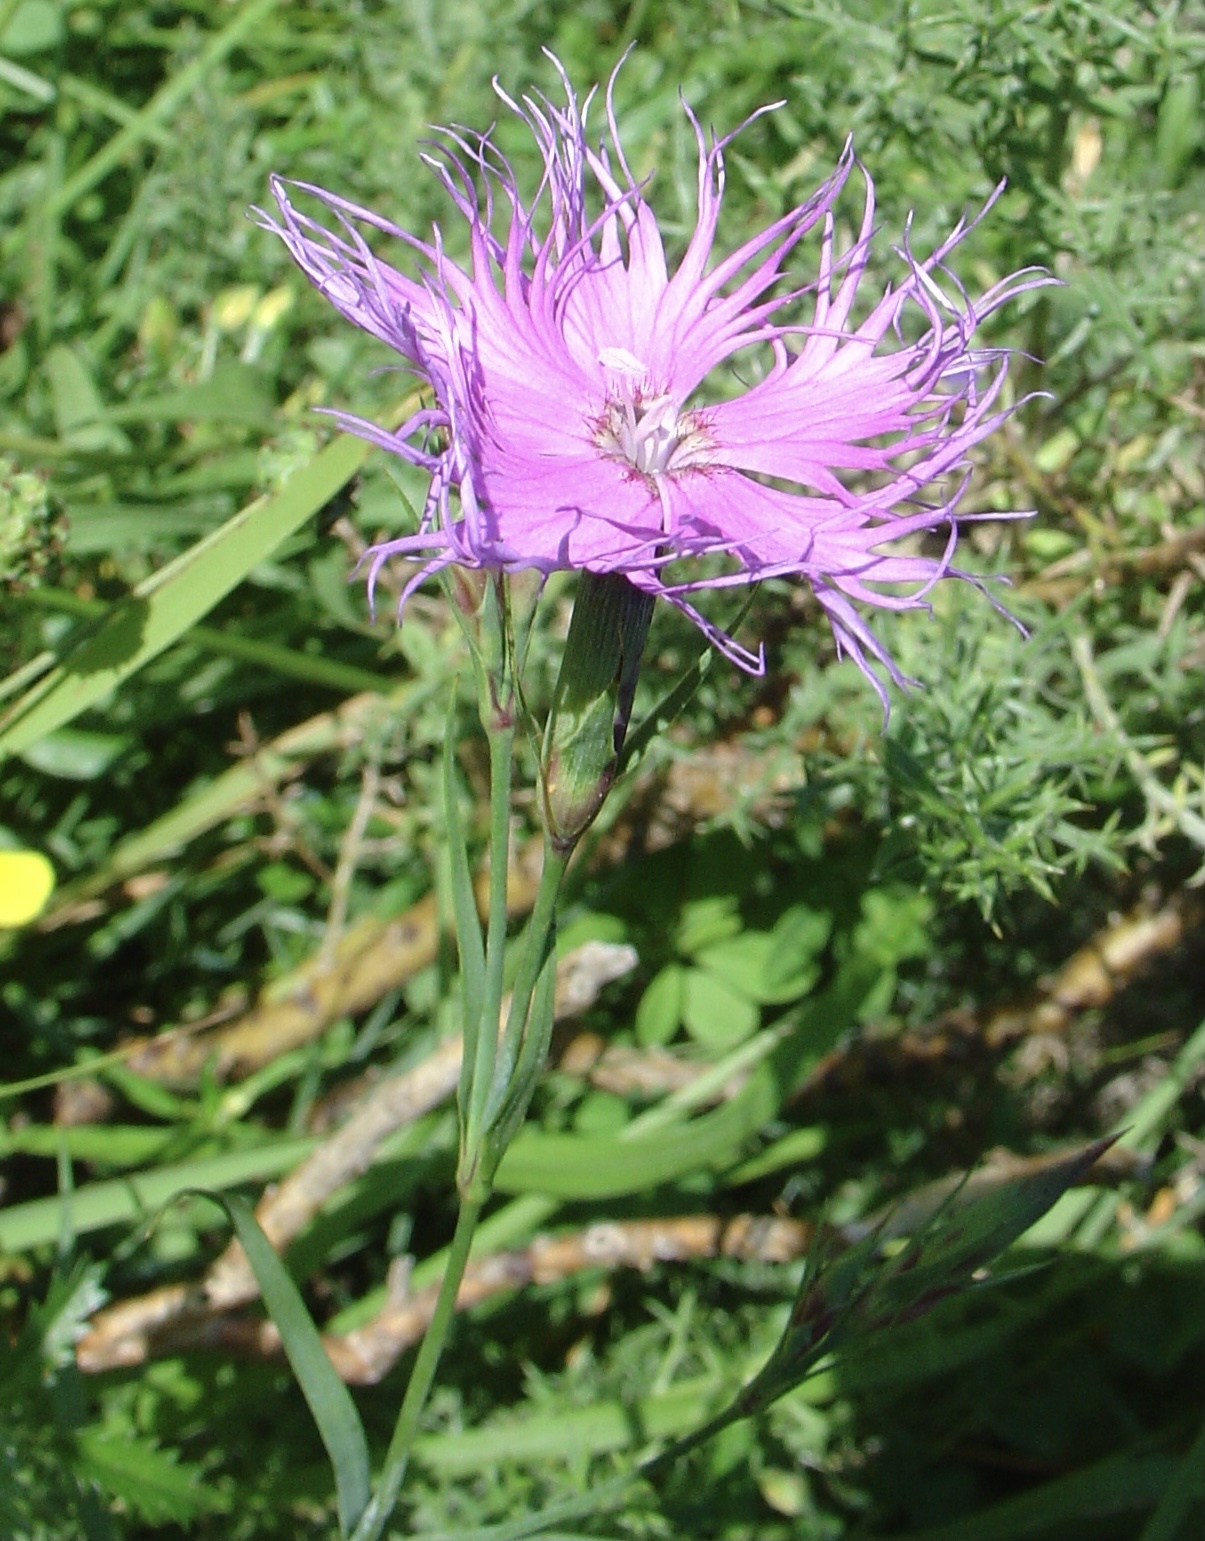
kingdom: Plantae
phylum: Tracheophyta
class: Magnoliopsida
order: Caryophyllales
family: Caryophyllaceae
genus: Dianthus
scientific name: Dianthus hyssopifolius
